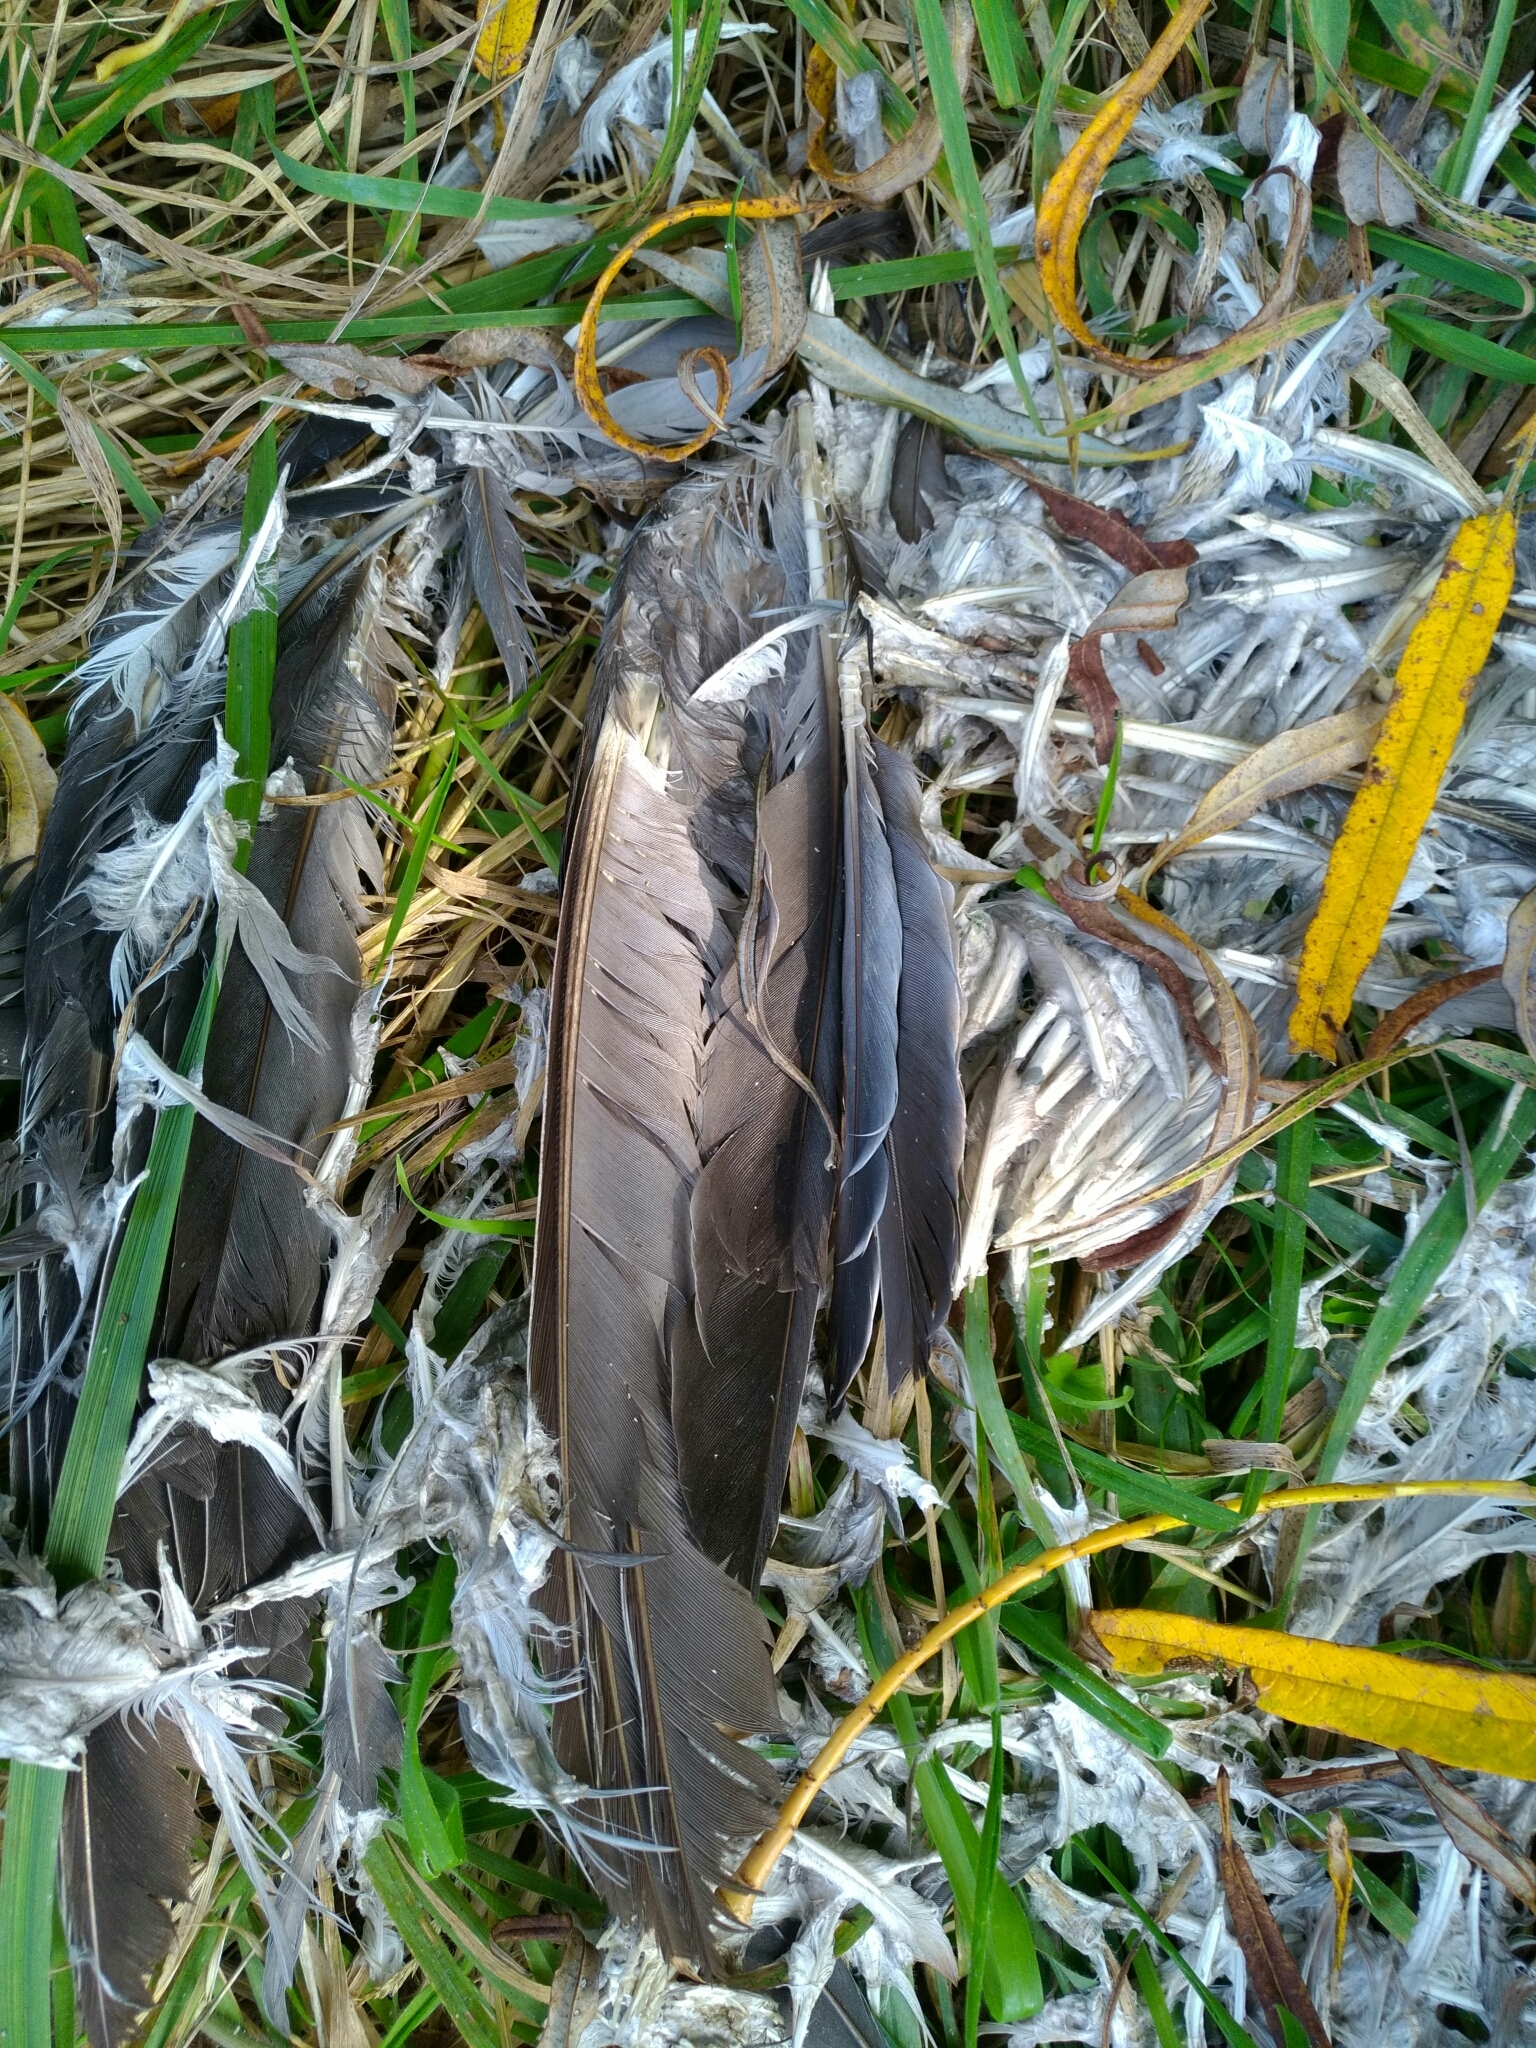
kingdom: Animalia
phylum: Chordata
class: Aves
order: Columbiformes
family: Columbidae
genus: Columba
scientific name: Columba palumbus
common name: Common wood pigeon
